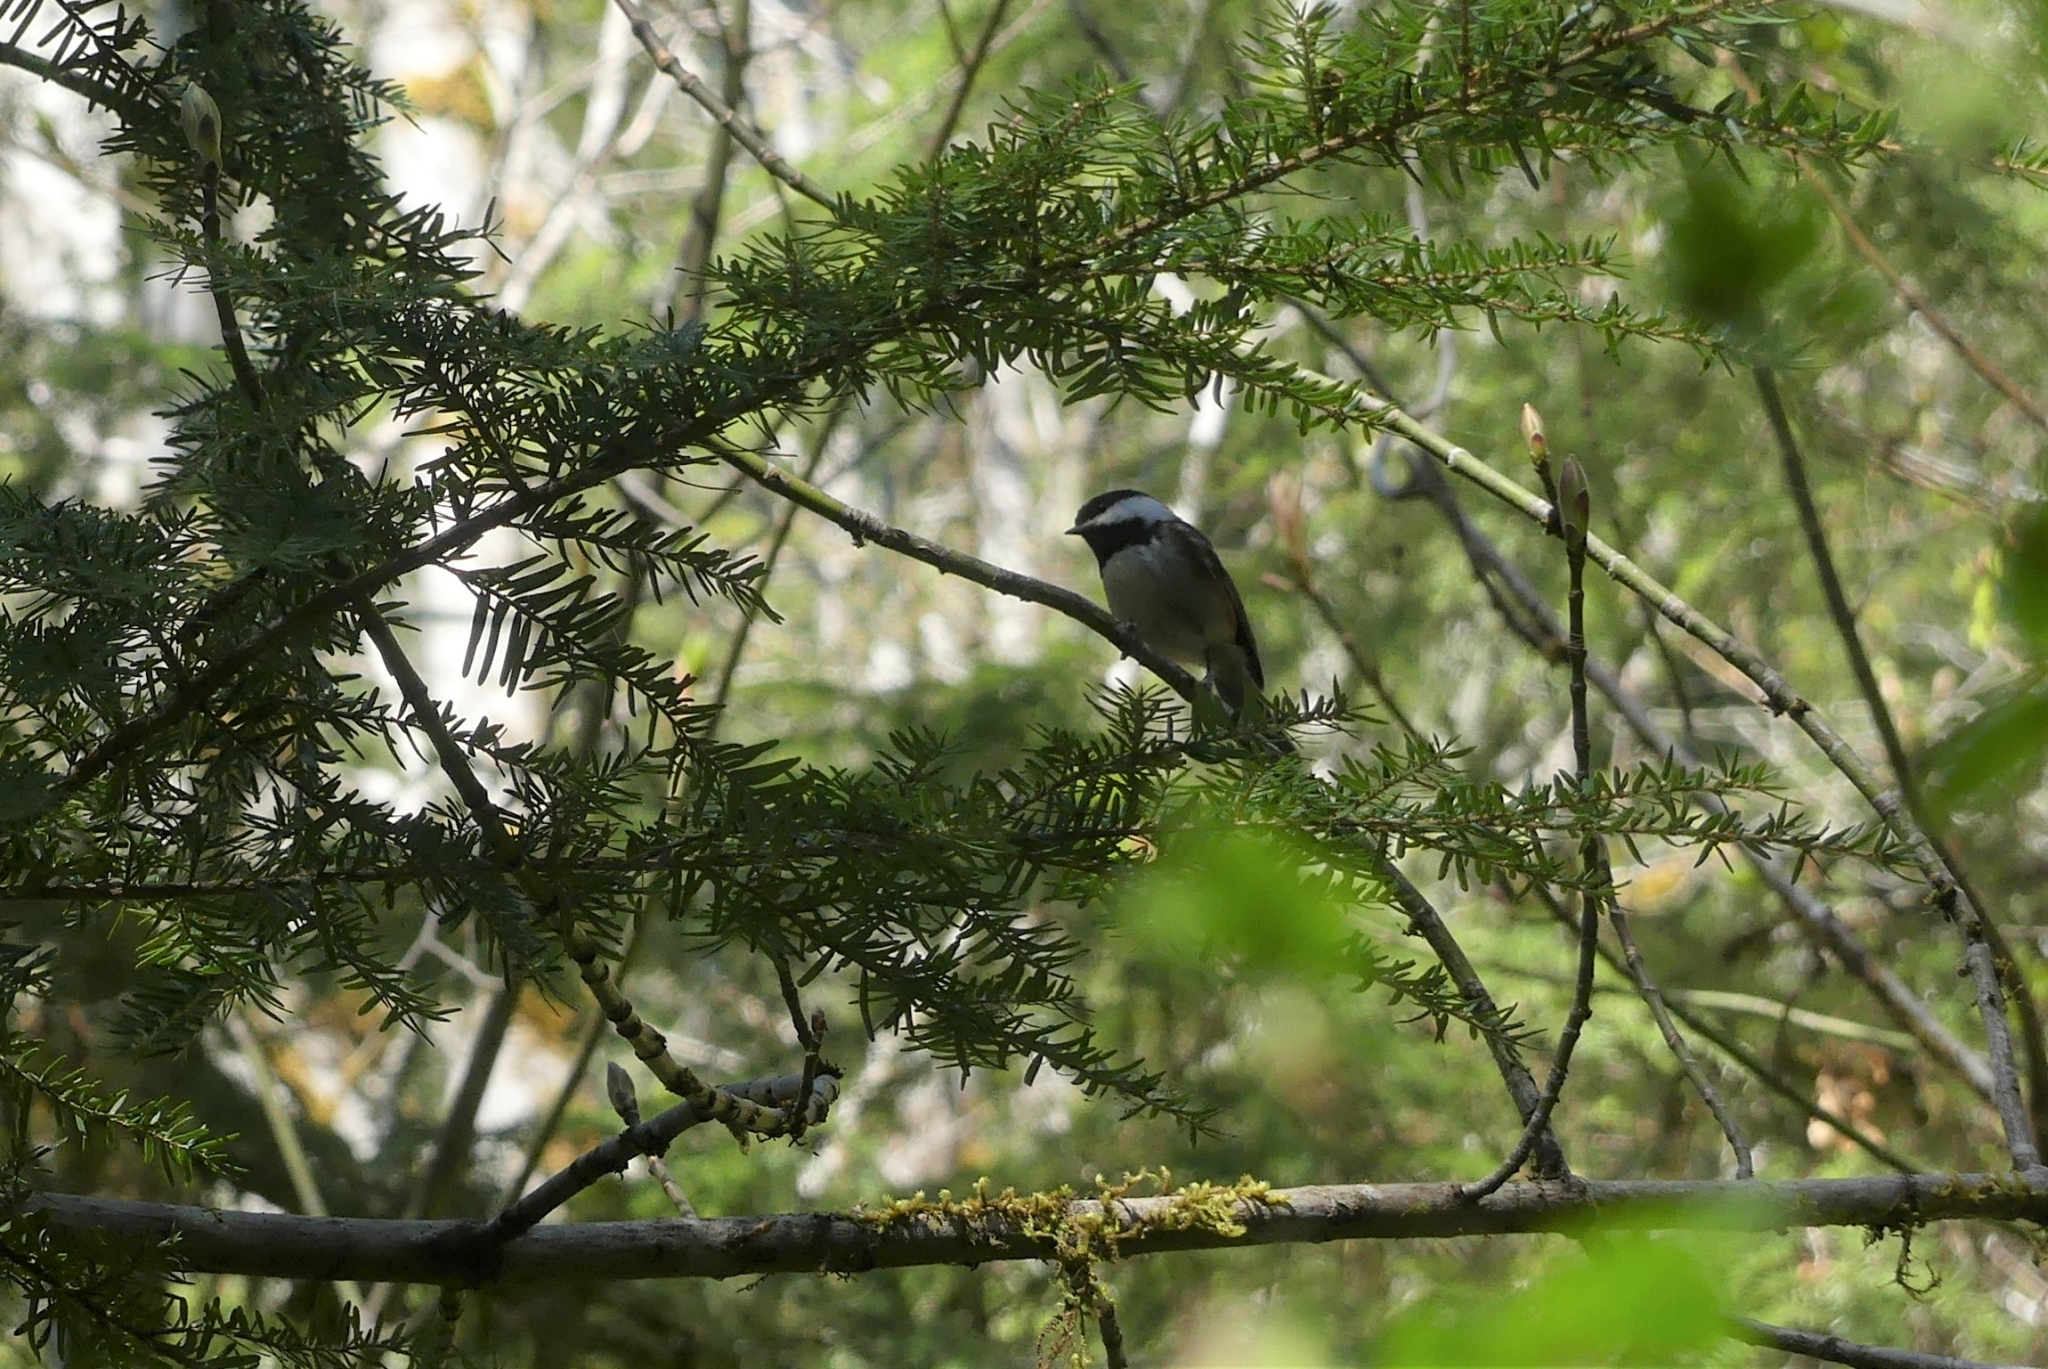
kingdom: Animalia
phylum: Chordata
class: Aves
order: Passeriformes
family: Paridae
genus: Poecile
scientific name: Poecile rufescens
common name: Chestnut-backed chickadee
